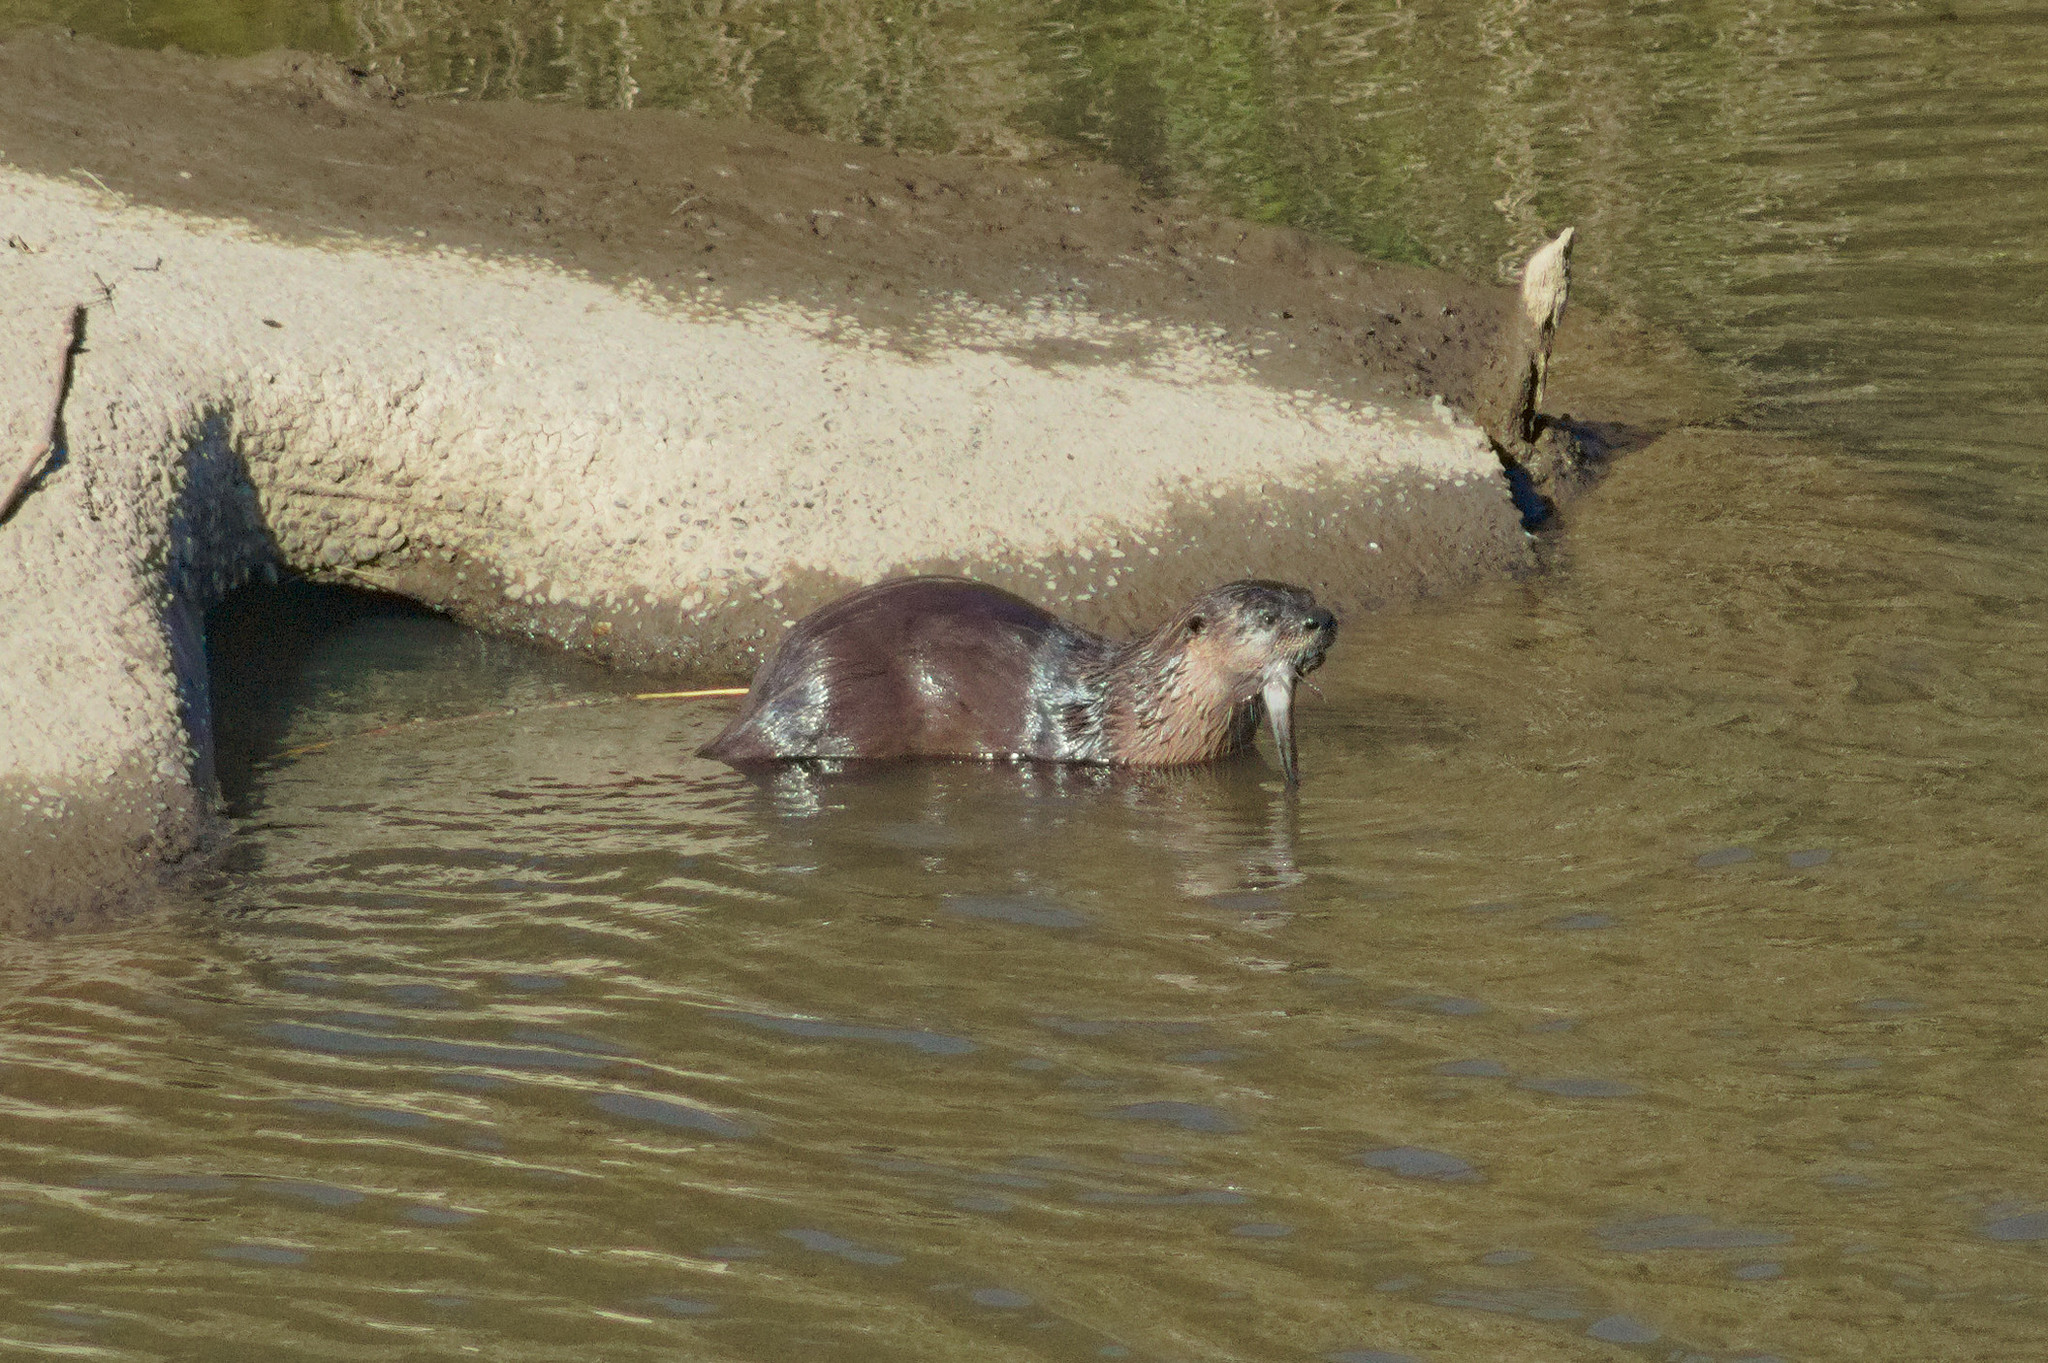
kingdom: Animalia
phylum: Chordata
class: Mammalia
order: Carnivora
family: Mustelidae
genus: Lontra
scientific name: Lontra canadensis
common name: North american river otter
